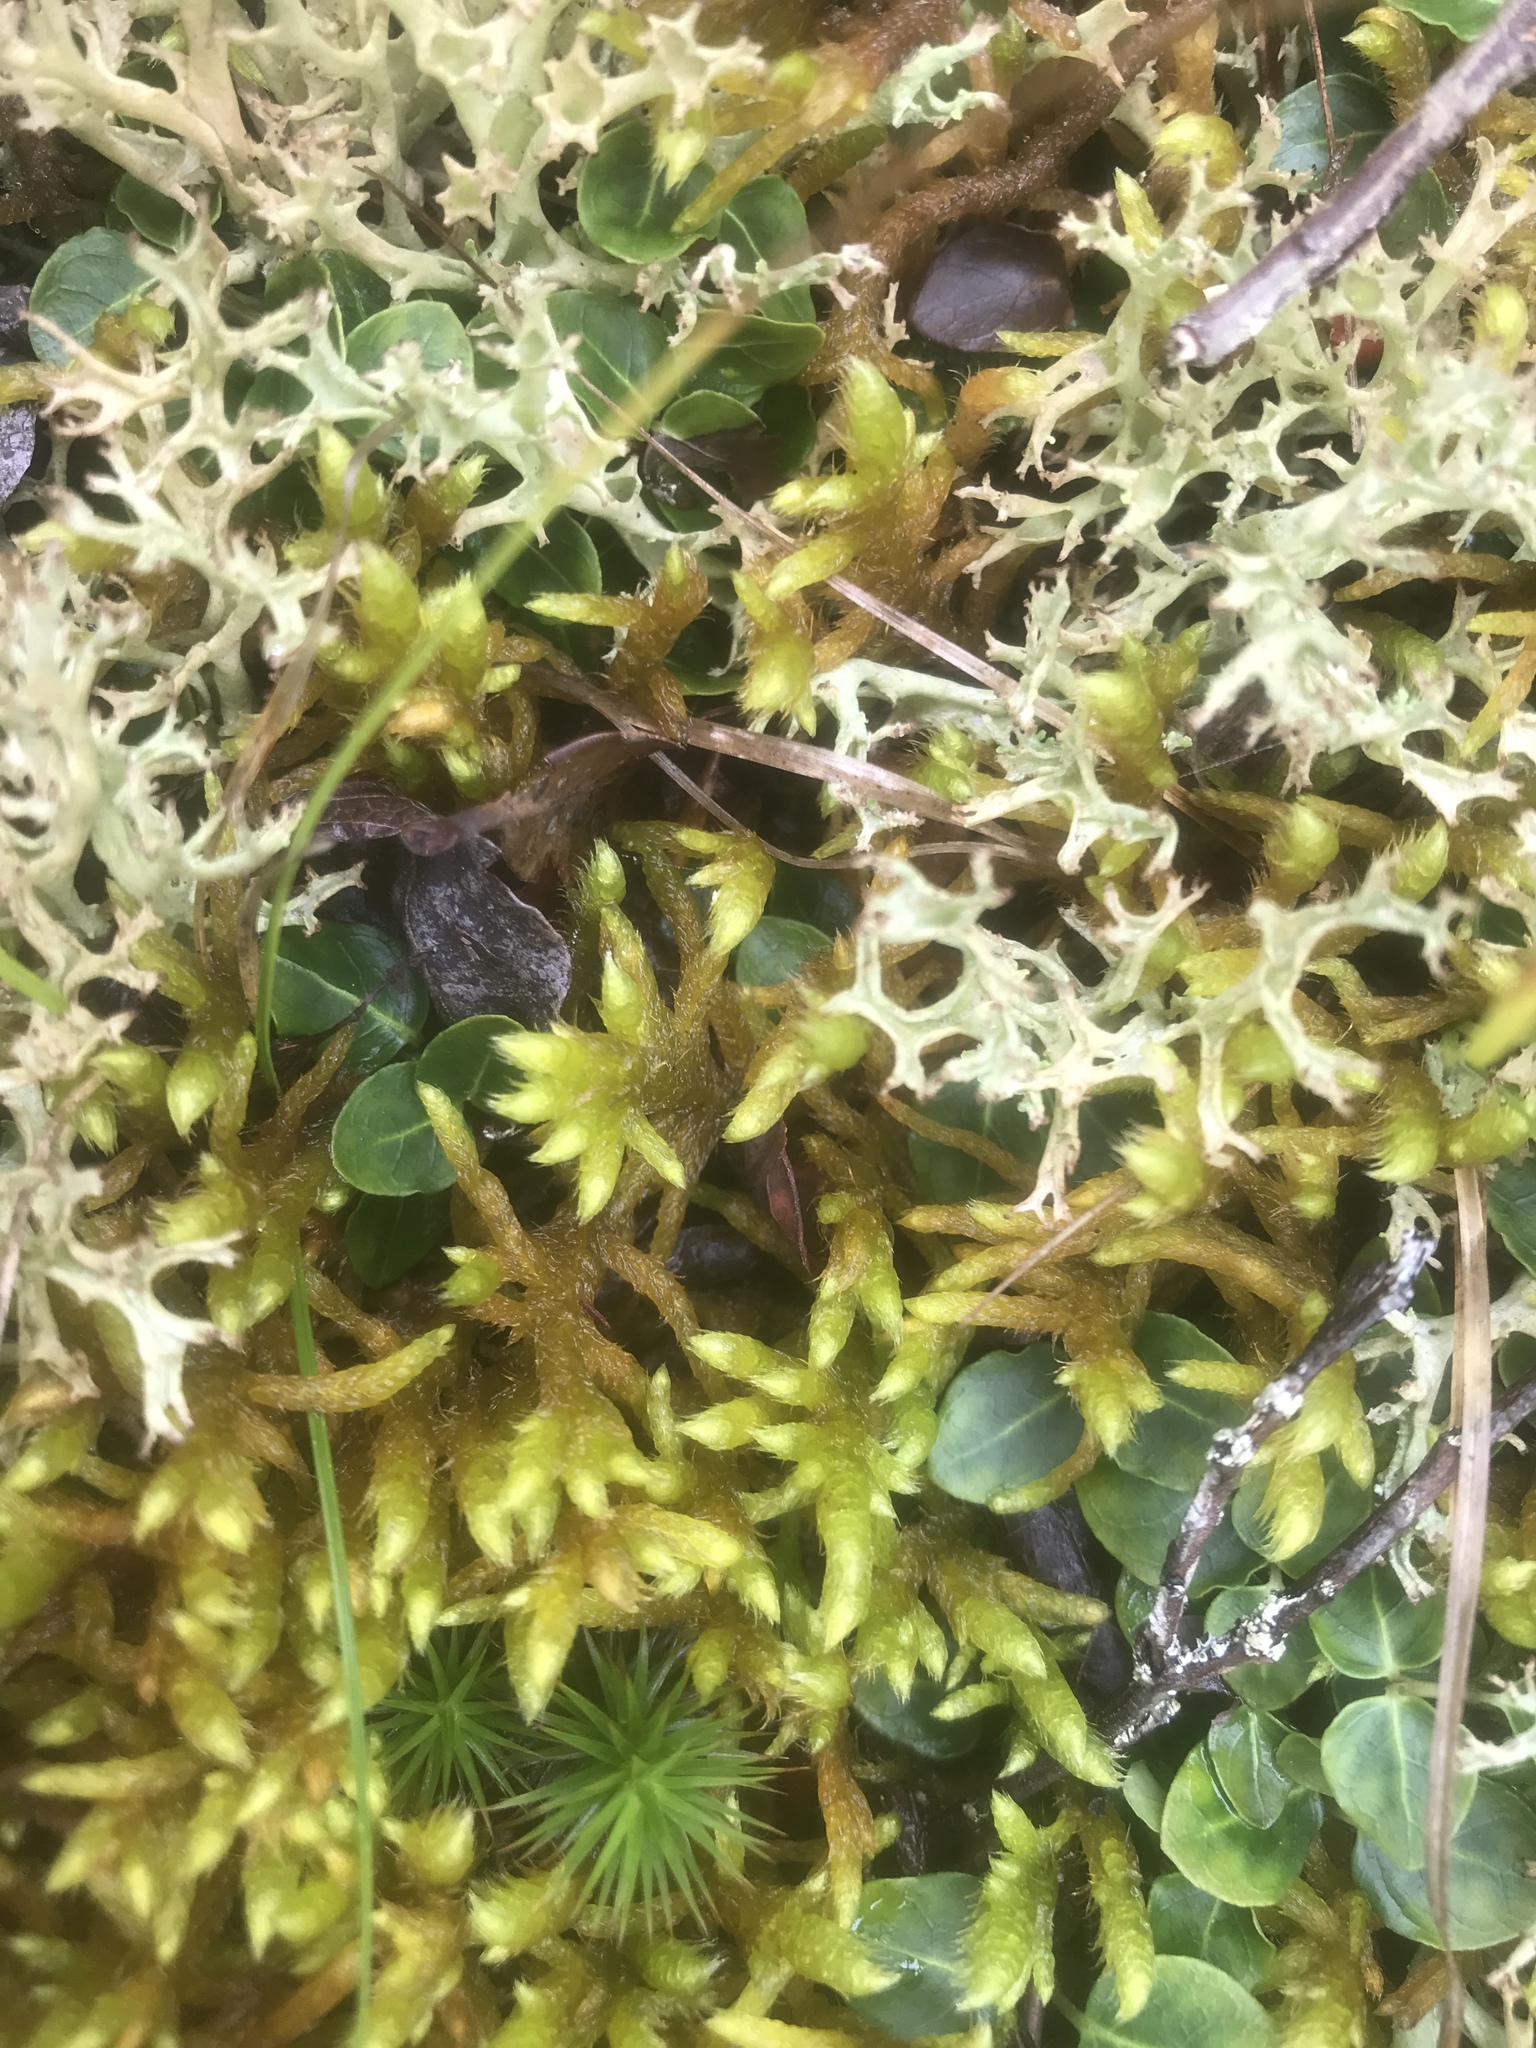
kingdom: Plantae
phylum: Bryophyta
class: Bryopsida
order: Hypnales
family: Rhytidiaceae
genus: Rhytidium
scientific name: Rhytidium rugosum
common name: Wrinkle-leaved moss
